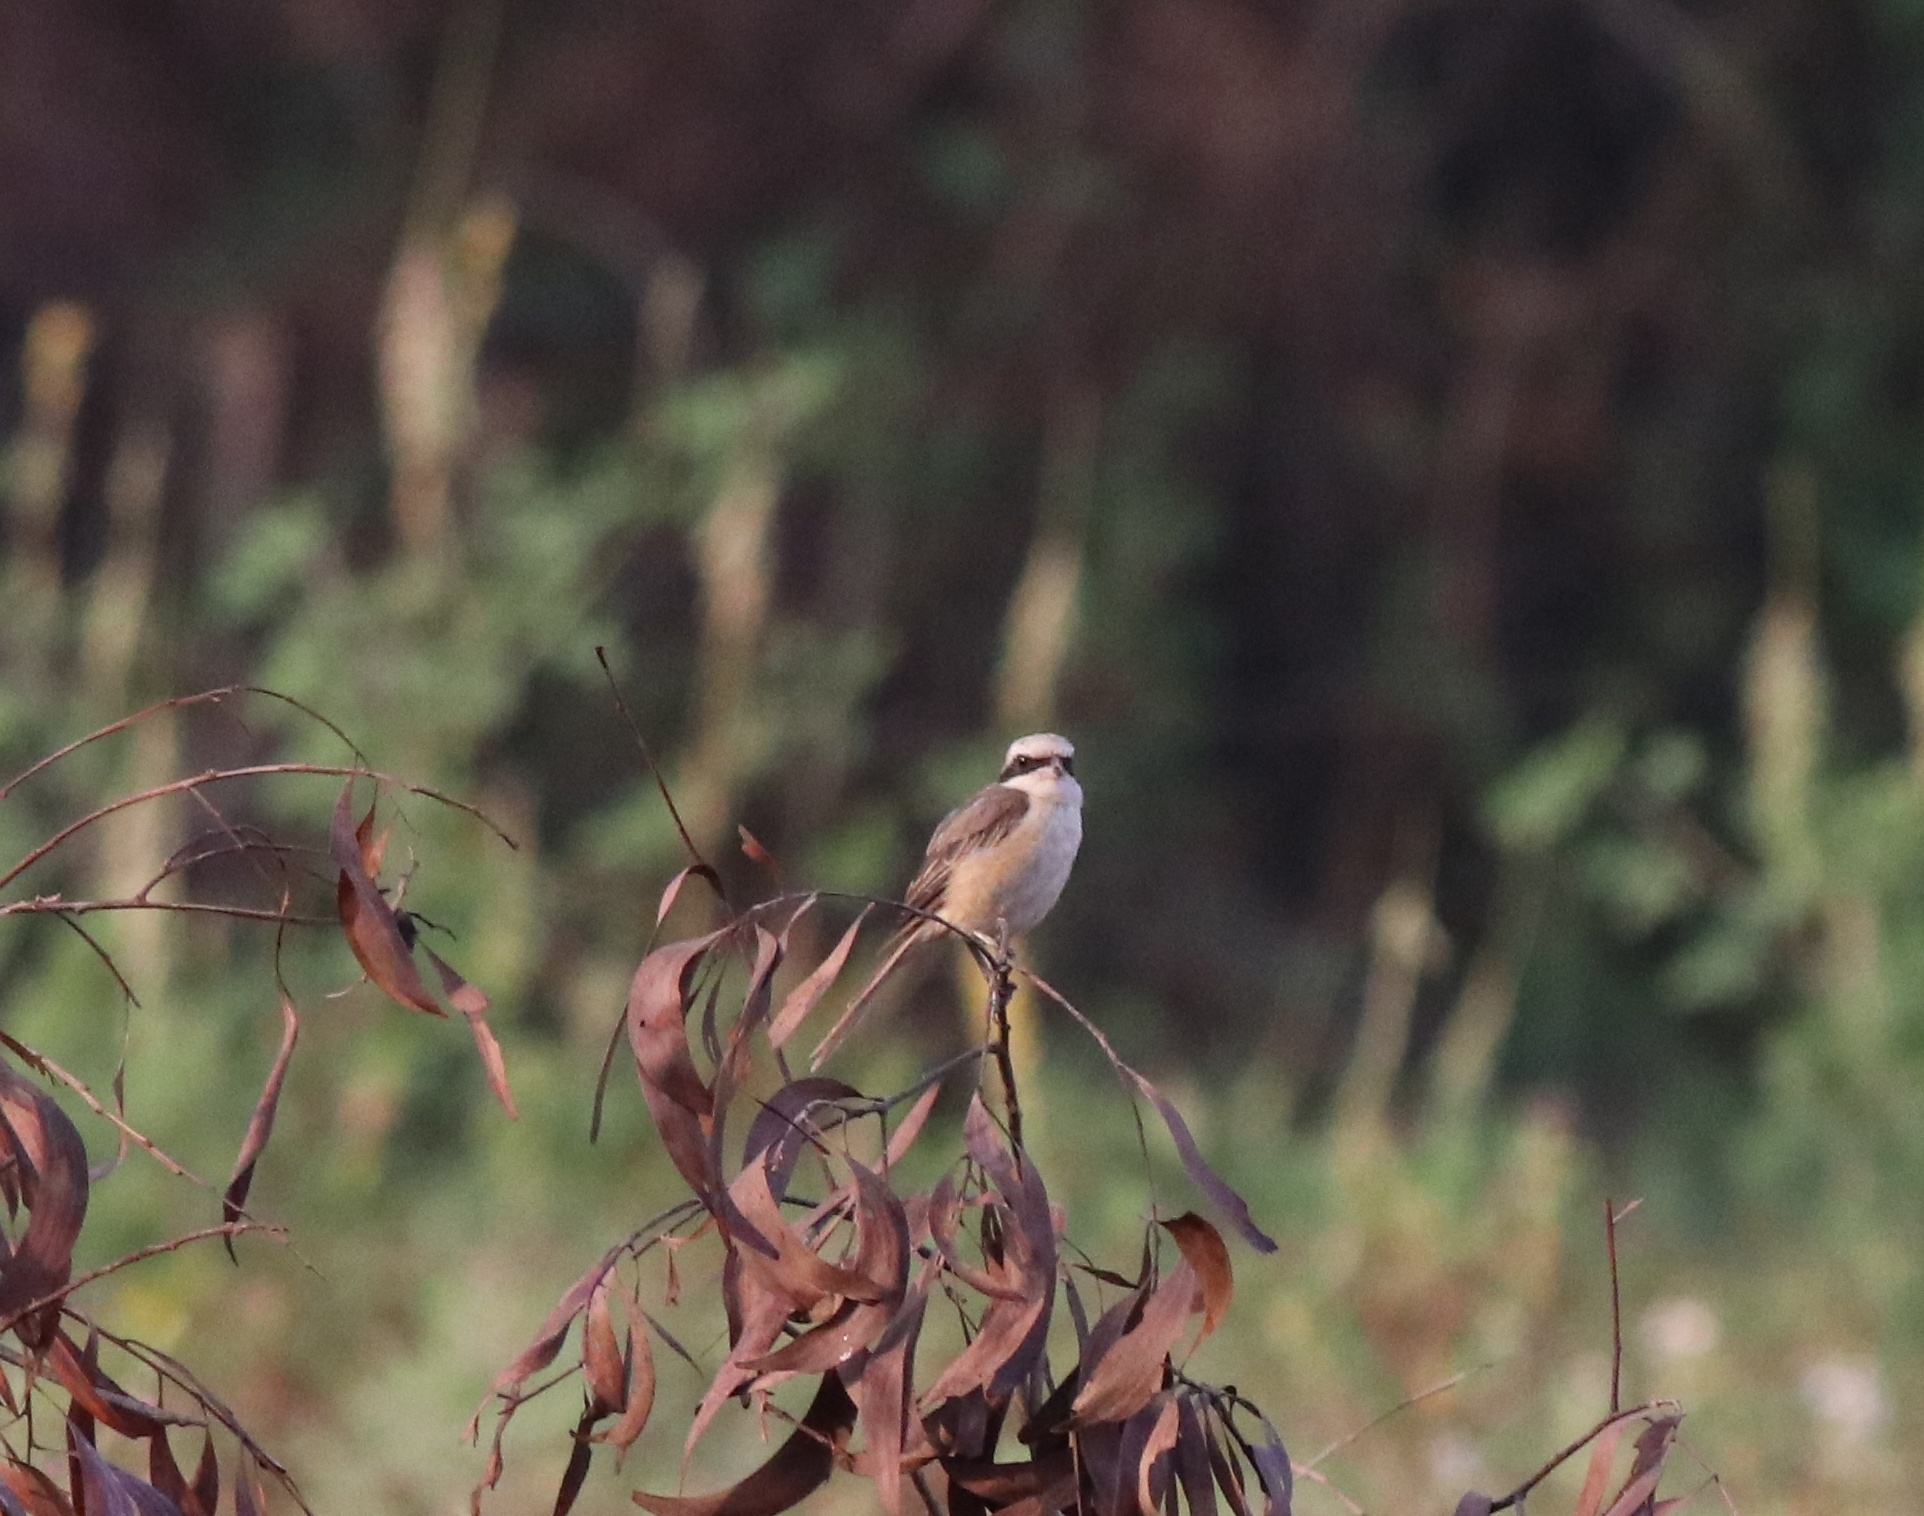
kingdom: Animalia
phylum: Chordata
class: Aves
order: Passeriformes
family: Laniidae
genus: Lanius
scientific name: Lanius cristatus
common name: Brown shrike
